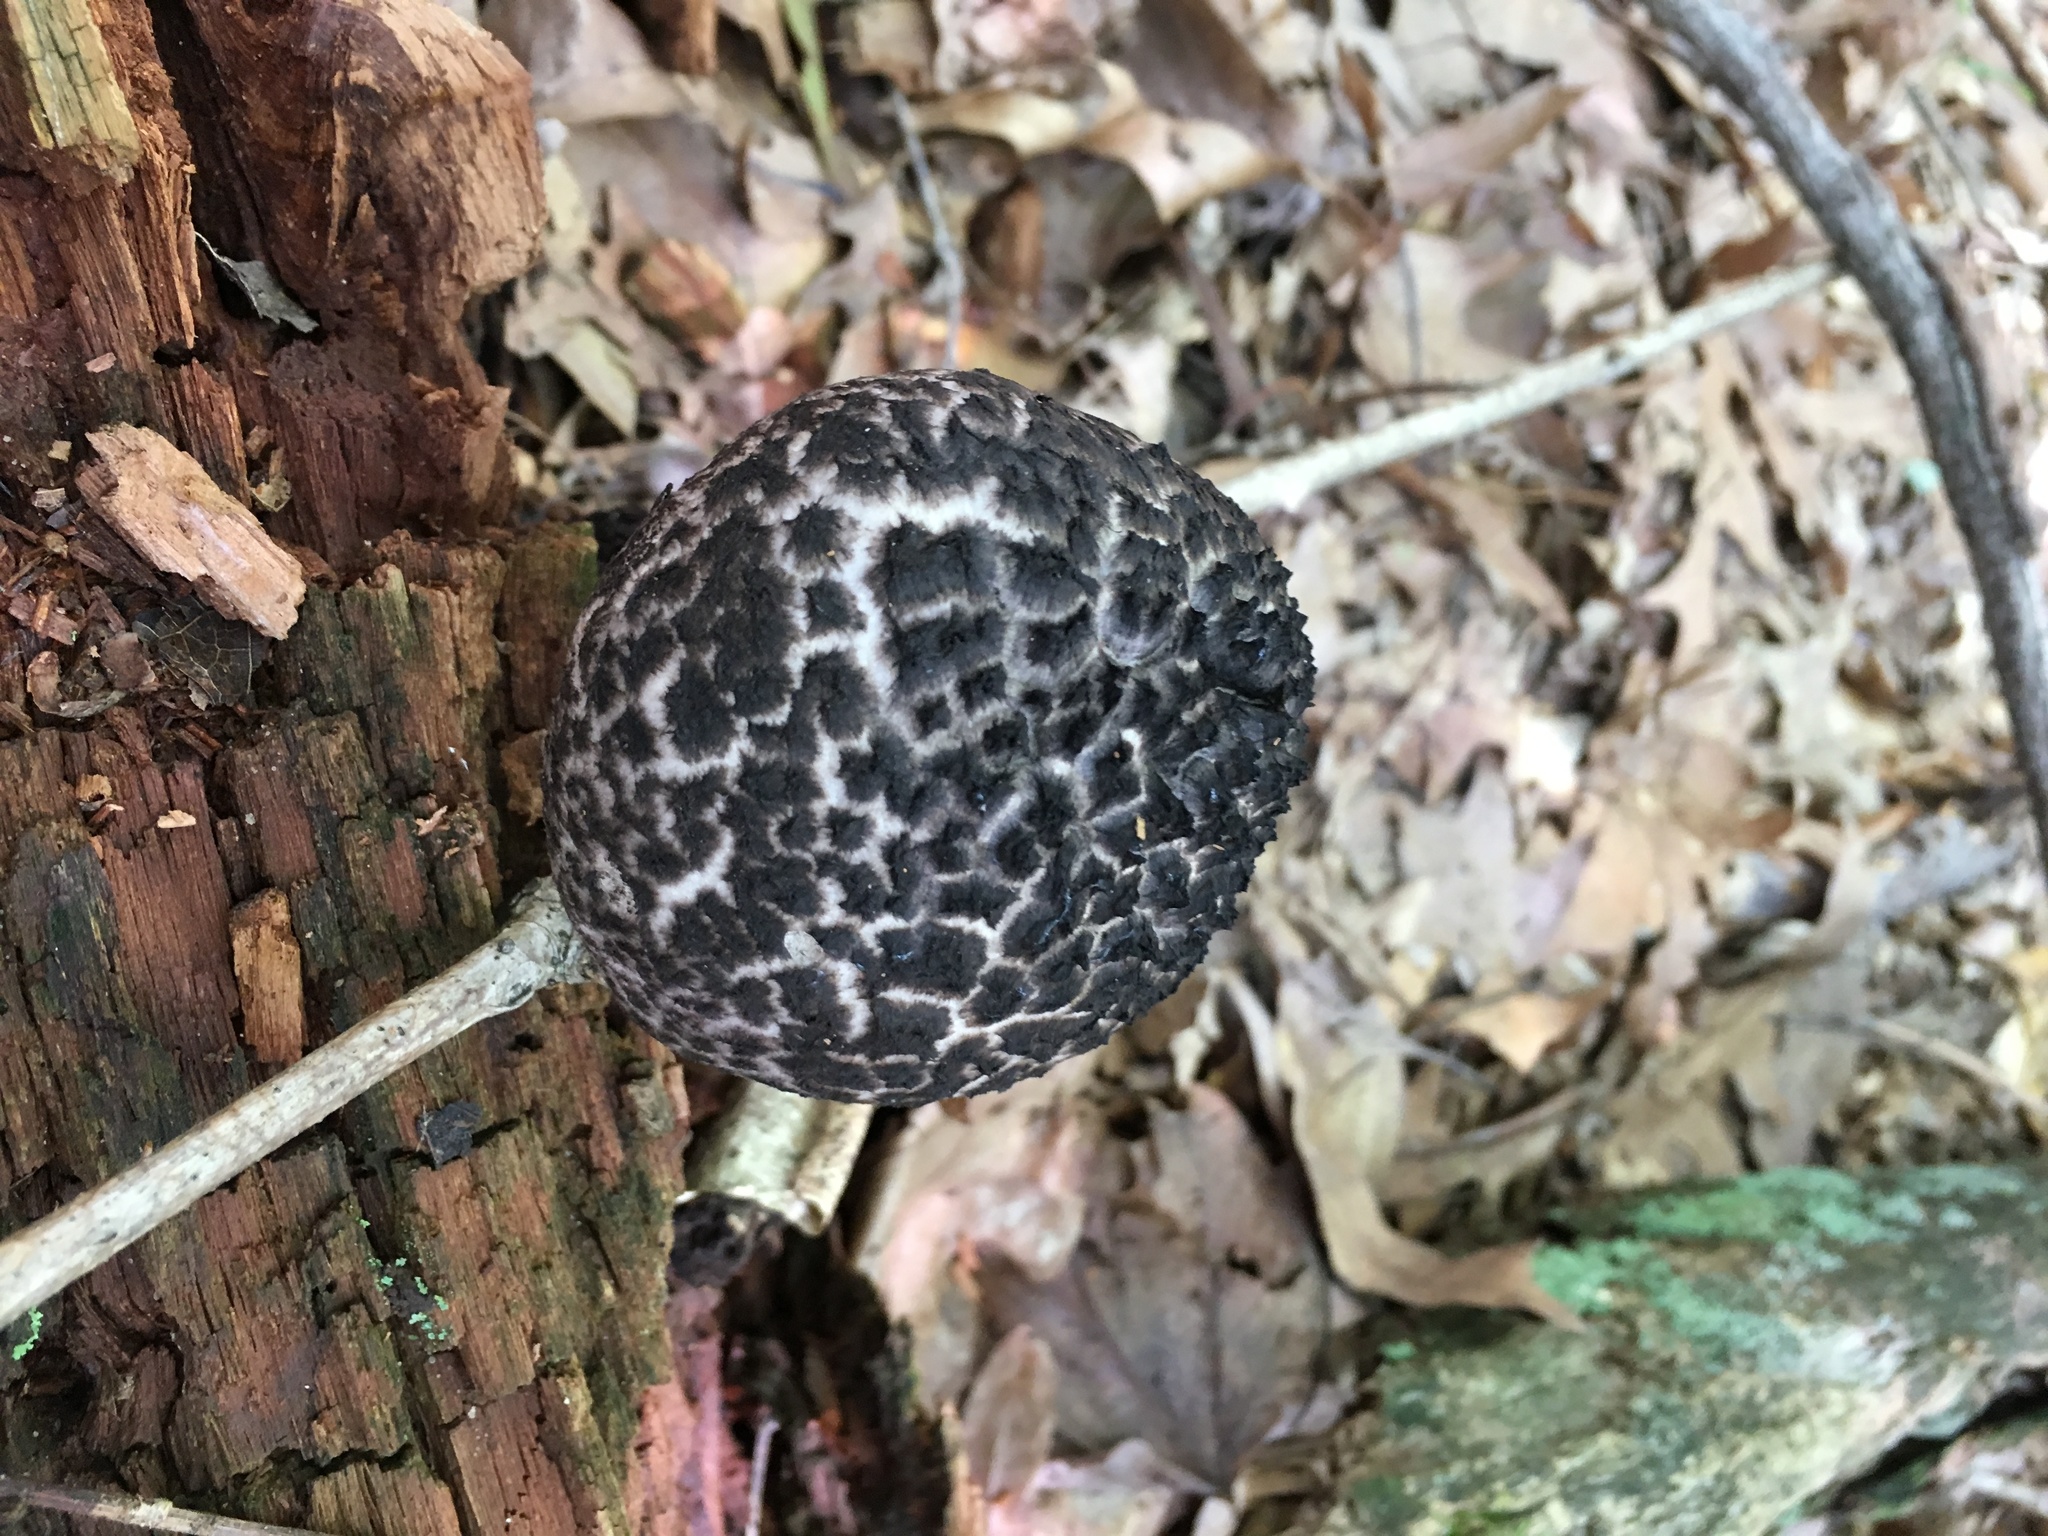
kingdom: Fungi
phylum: Basidiomycota
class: Agaricomycetes
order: Boletales
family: Boletaceae
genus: Strobilomyces
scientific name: Strobilomyces strobilaceus
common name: Old man of the woods
